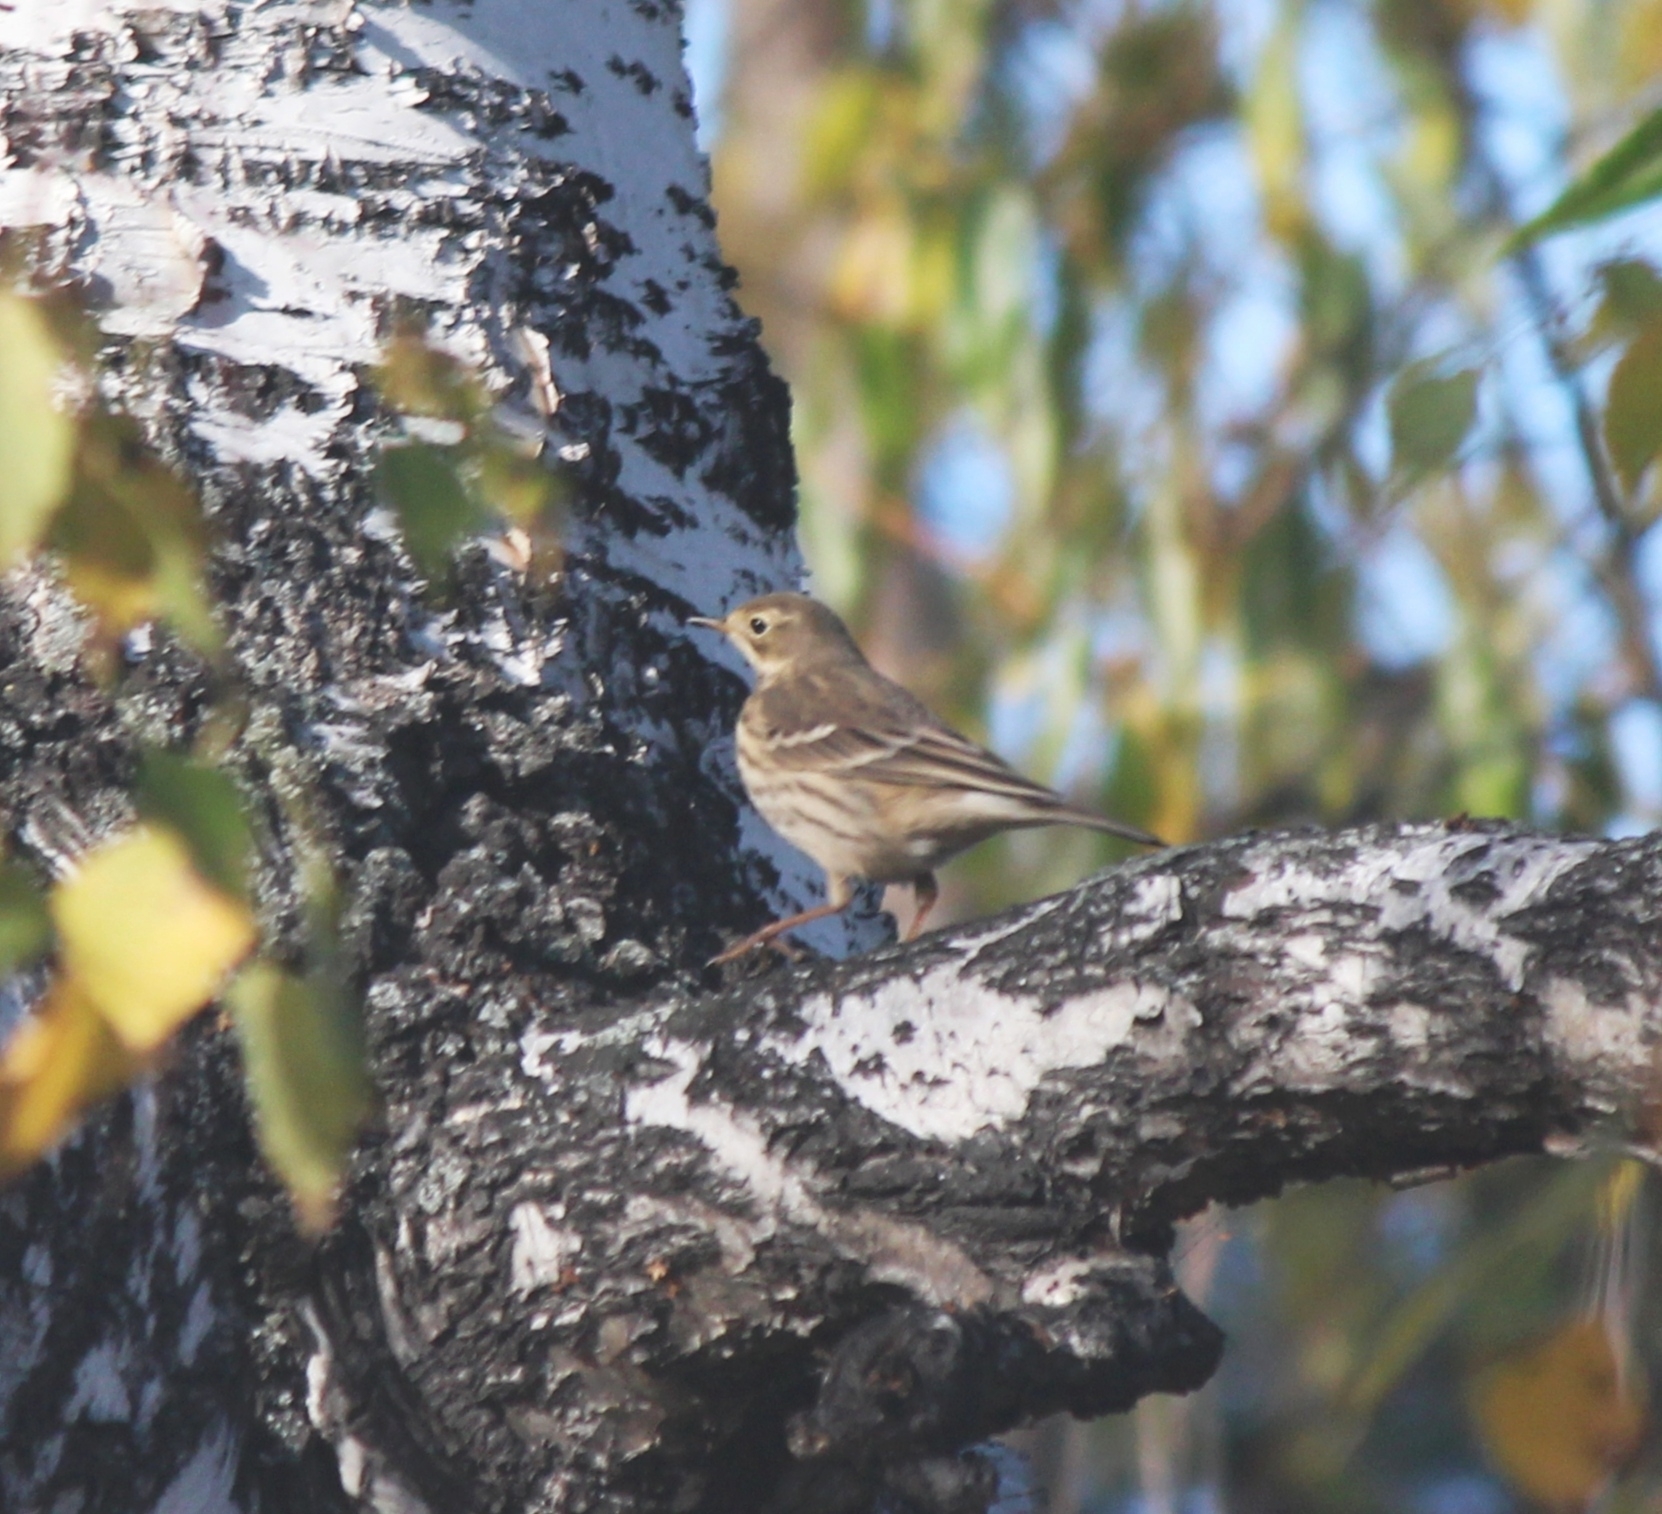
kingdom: Animalia
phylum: Chordata
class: Aves
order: Passeriformes
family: Motacillidae
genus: Anthus
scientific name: Anthus rubescens
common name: Buff-bellied pipit
